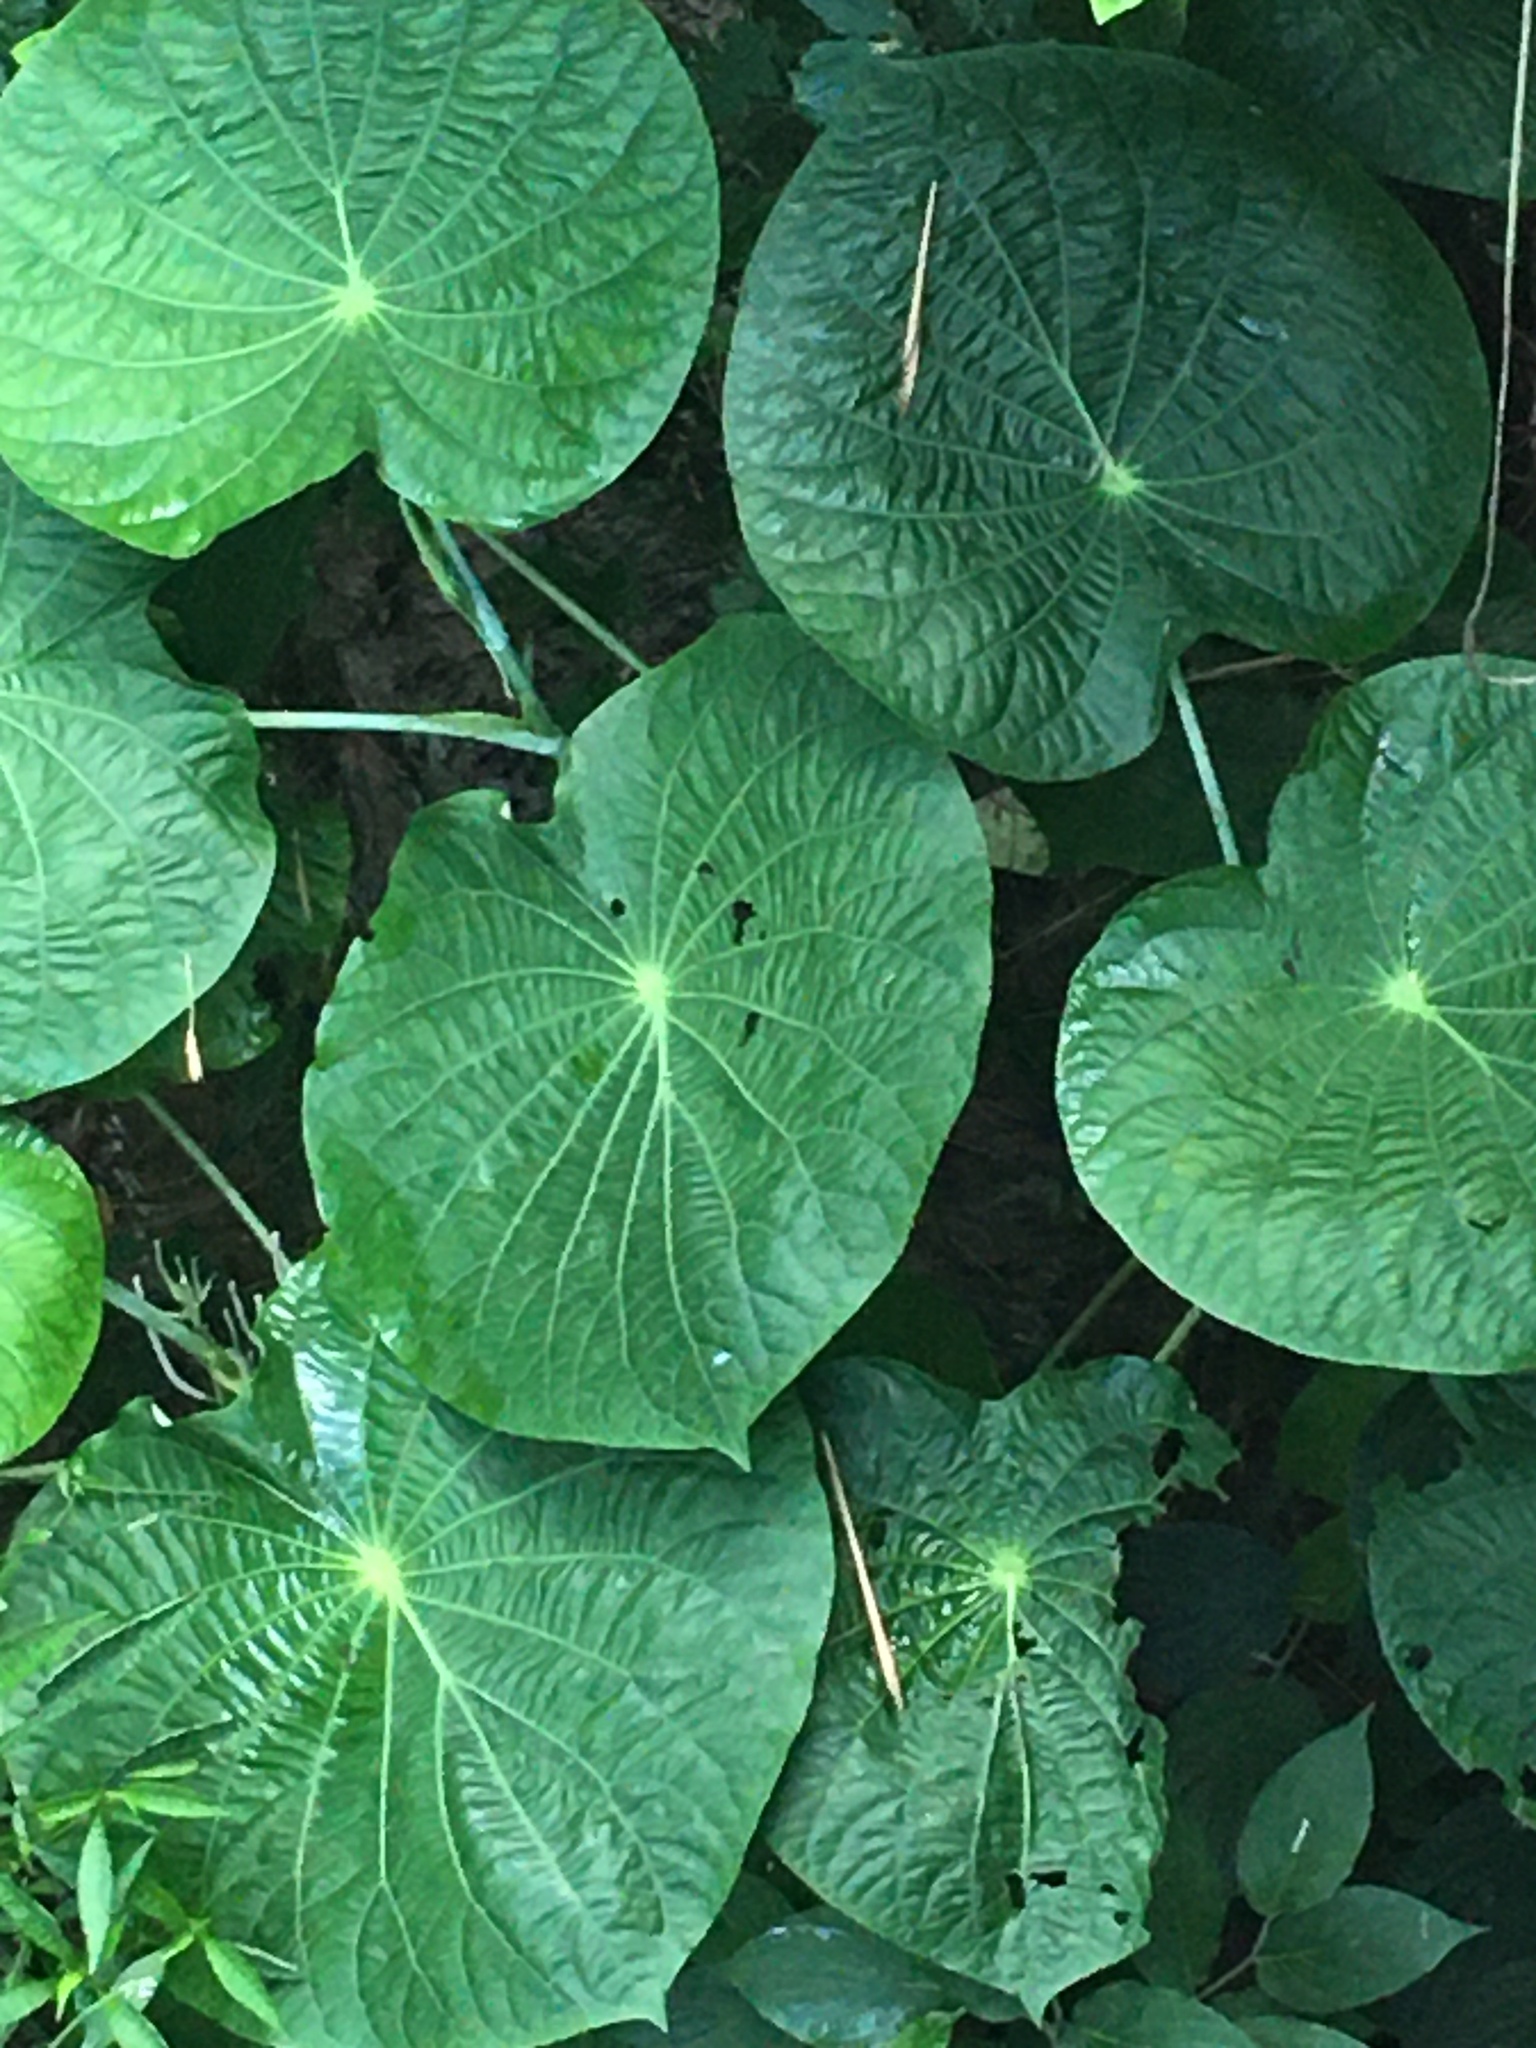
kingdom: Plantae
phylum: Tracheophyta
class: Magnoliopsida
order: Piperales
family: Piperaceae
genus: Piper
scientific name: Piper peltatum
